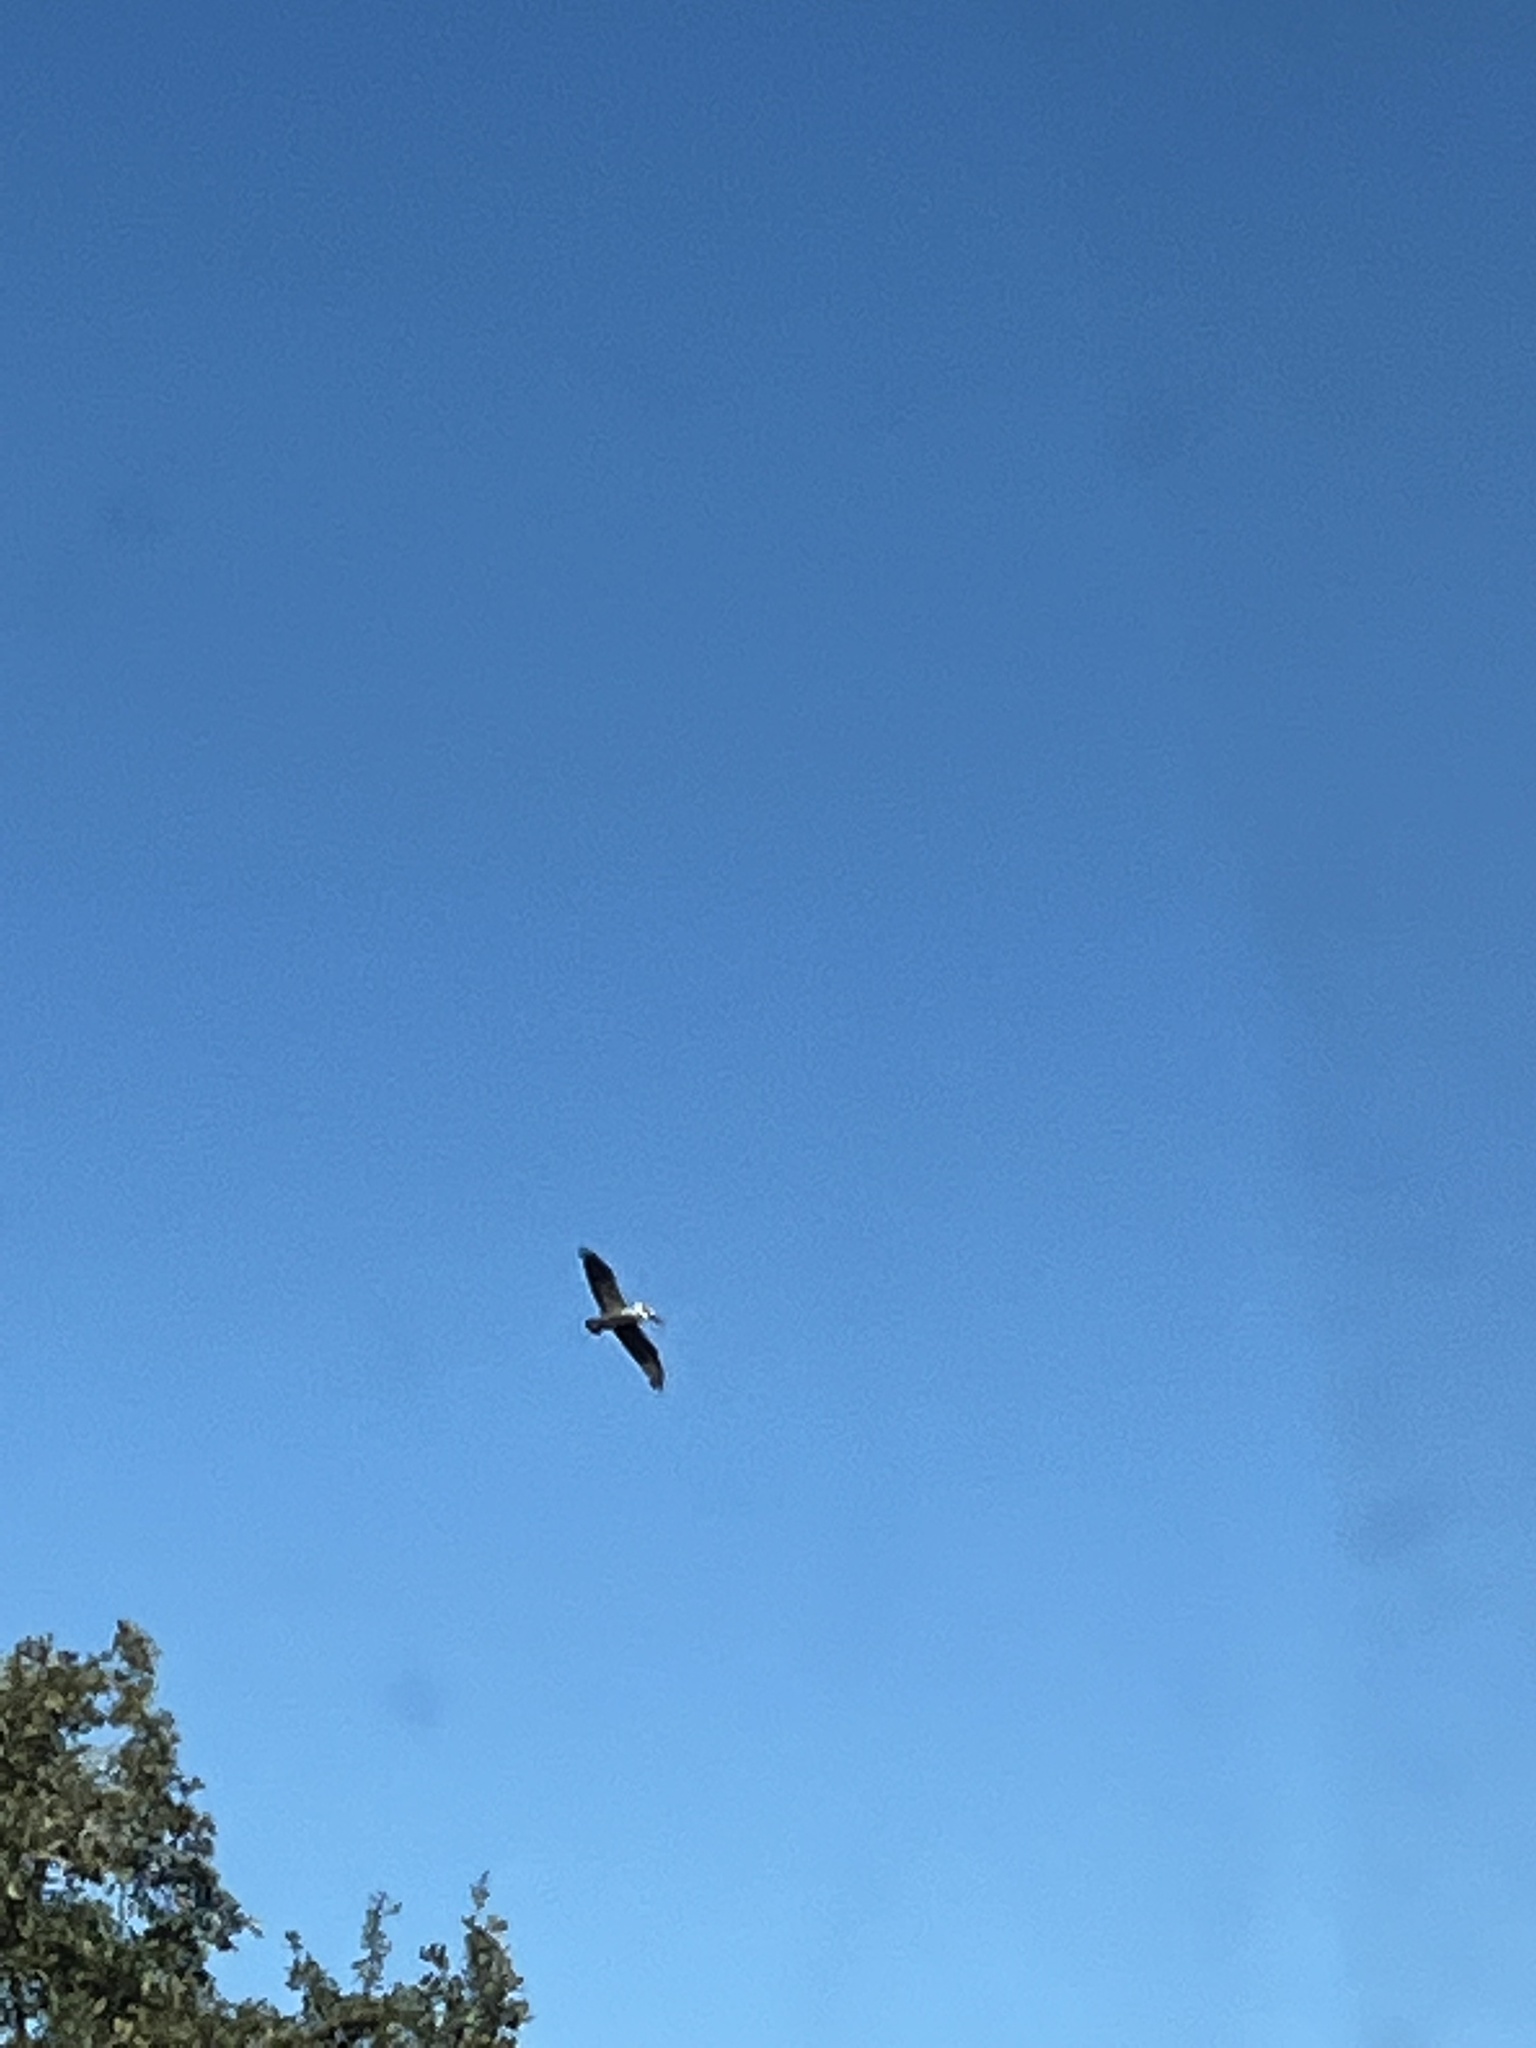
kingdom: Animalia
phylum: Chordata
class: Aves
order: Pelecaniformes
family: Pelecanidae
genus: Pelecanus
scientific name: Pelecanus occidentalis
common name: Brown pelican
